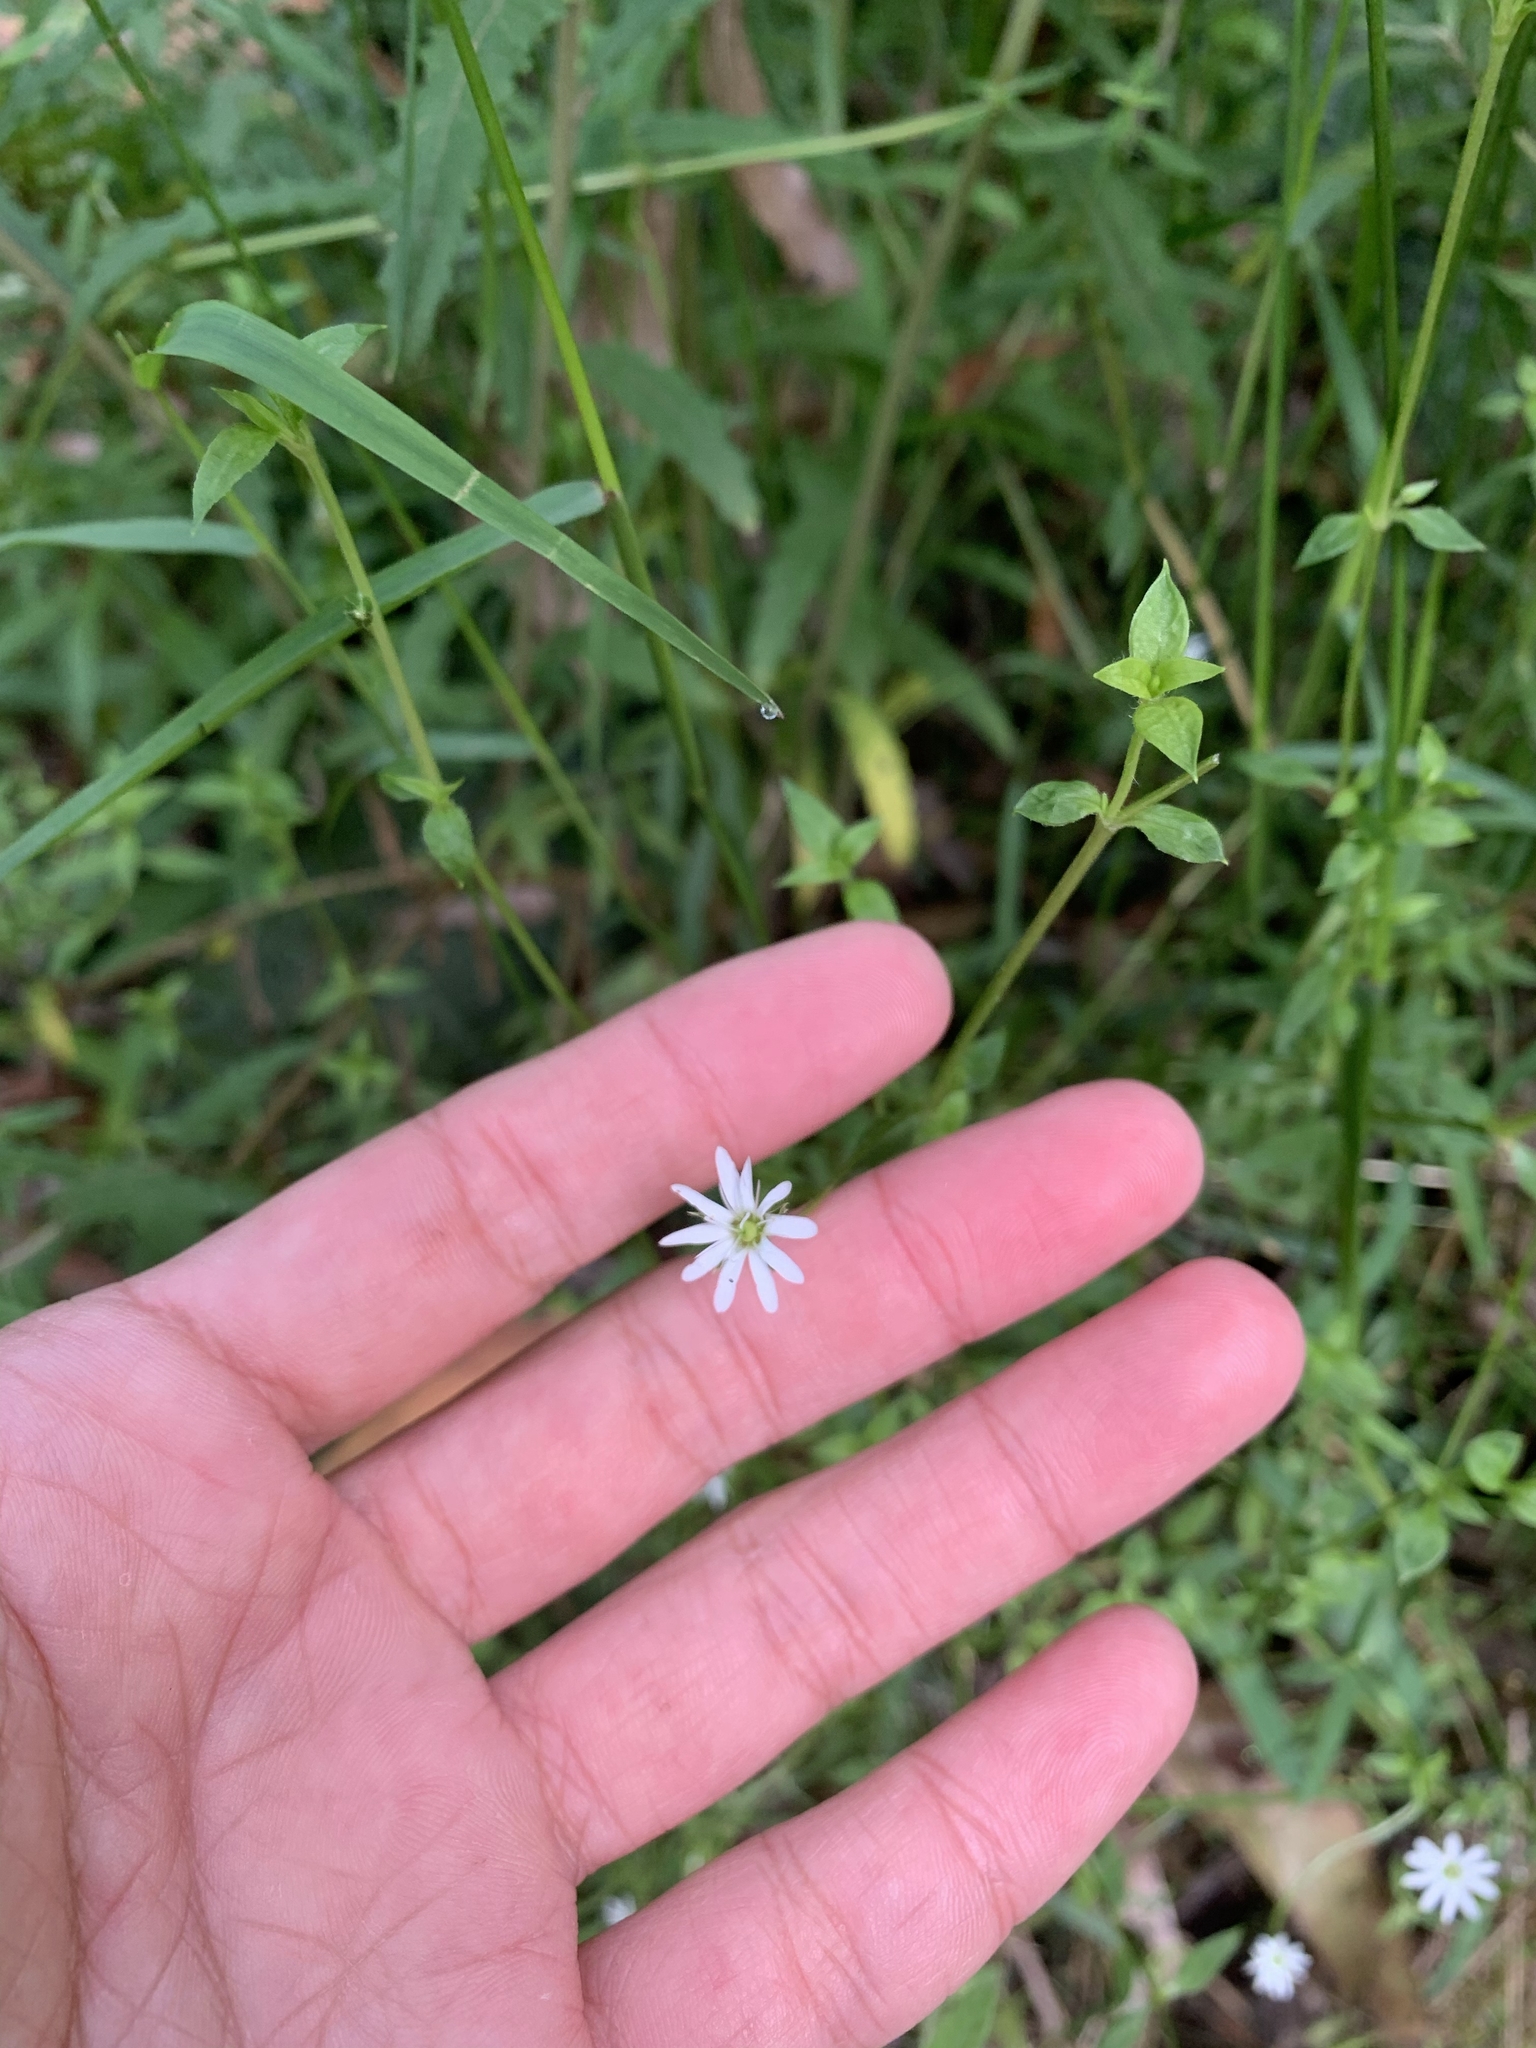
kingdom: Plantae
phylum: Tracheophyta
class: Magnoliopsida
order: Caryophyllales
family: Caryophyllaceae
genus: Stellaria
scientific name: Stellaria flaccida
